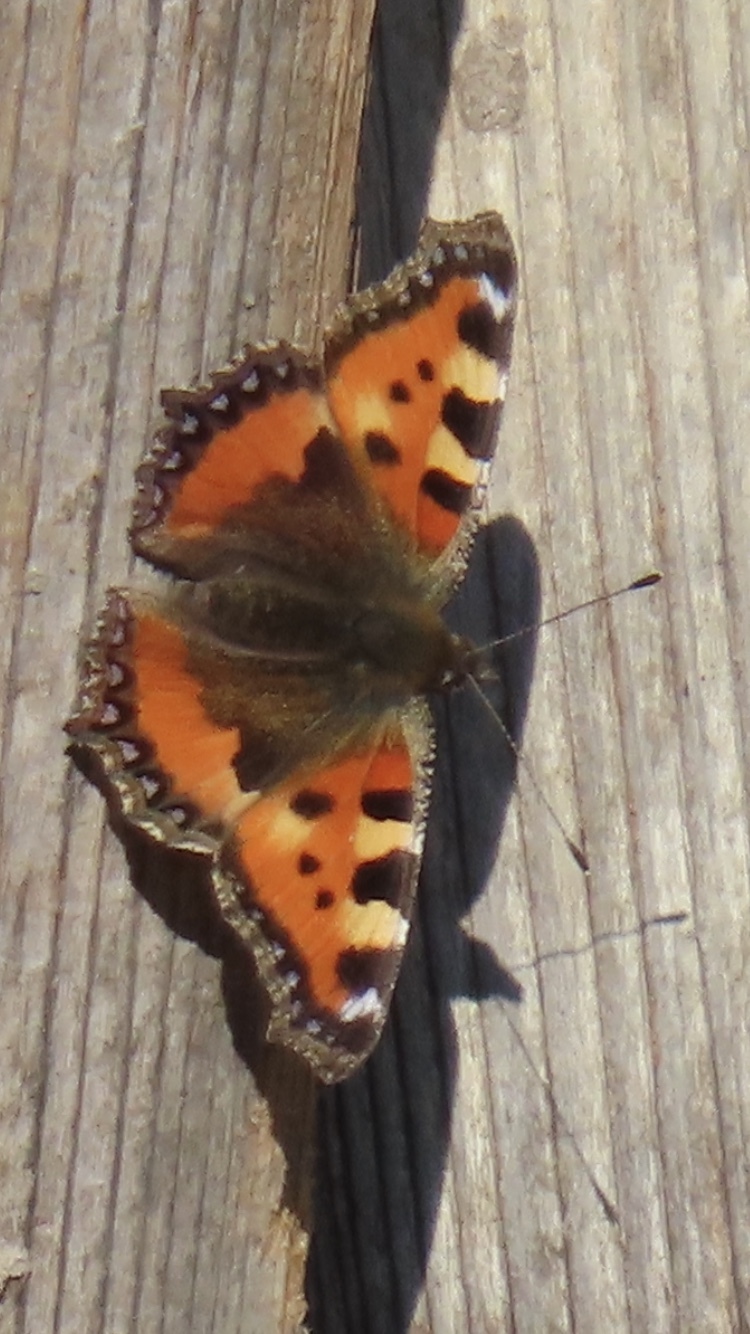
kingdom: Animalia
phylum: Arthropoda
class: Insecta
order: Lepidoptera
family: Nymphalidae
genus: Aglais
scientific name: Aglais urticae
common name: Small tortoiseshell
